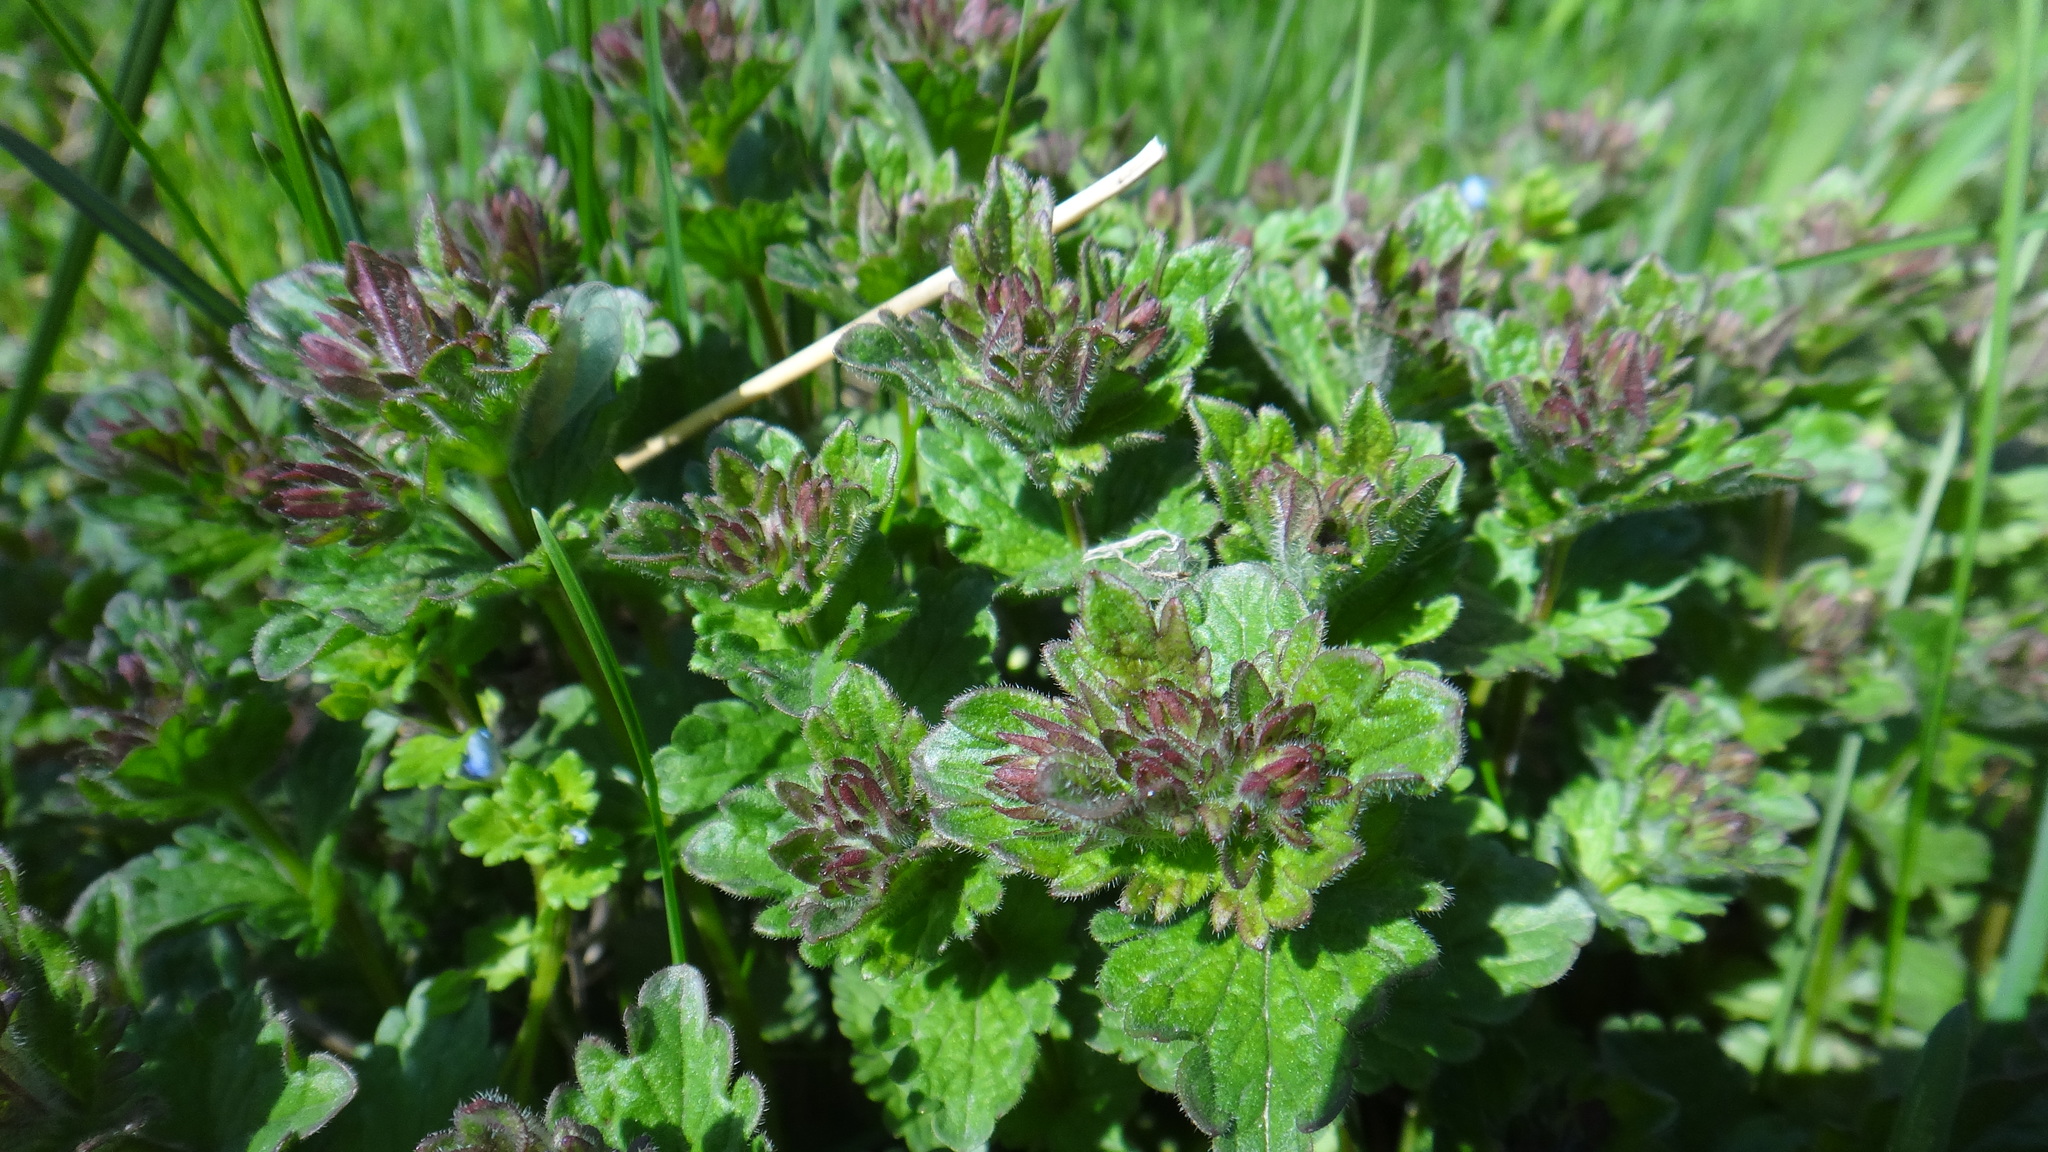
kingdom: Plantae
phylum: Tracheophyta
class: Magnoliopsida
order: Lamiales
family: Plantaginaceae
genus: Veronica
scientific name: Veronica chamaedrys
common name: Germander speedwell
